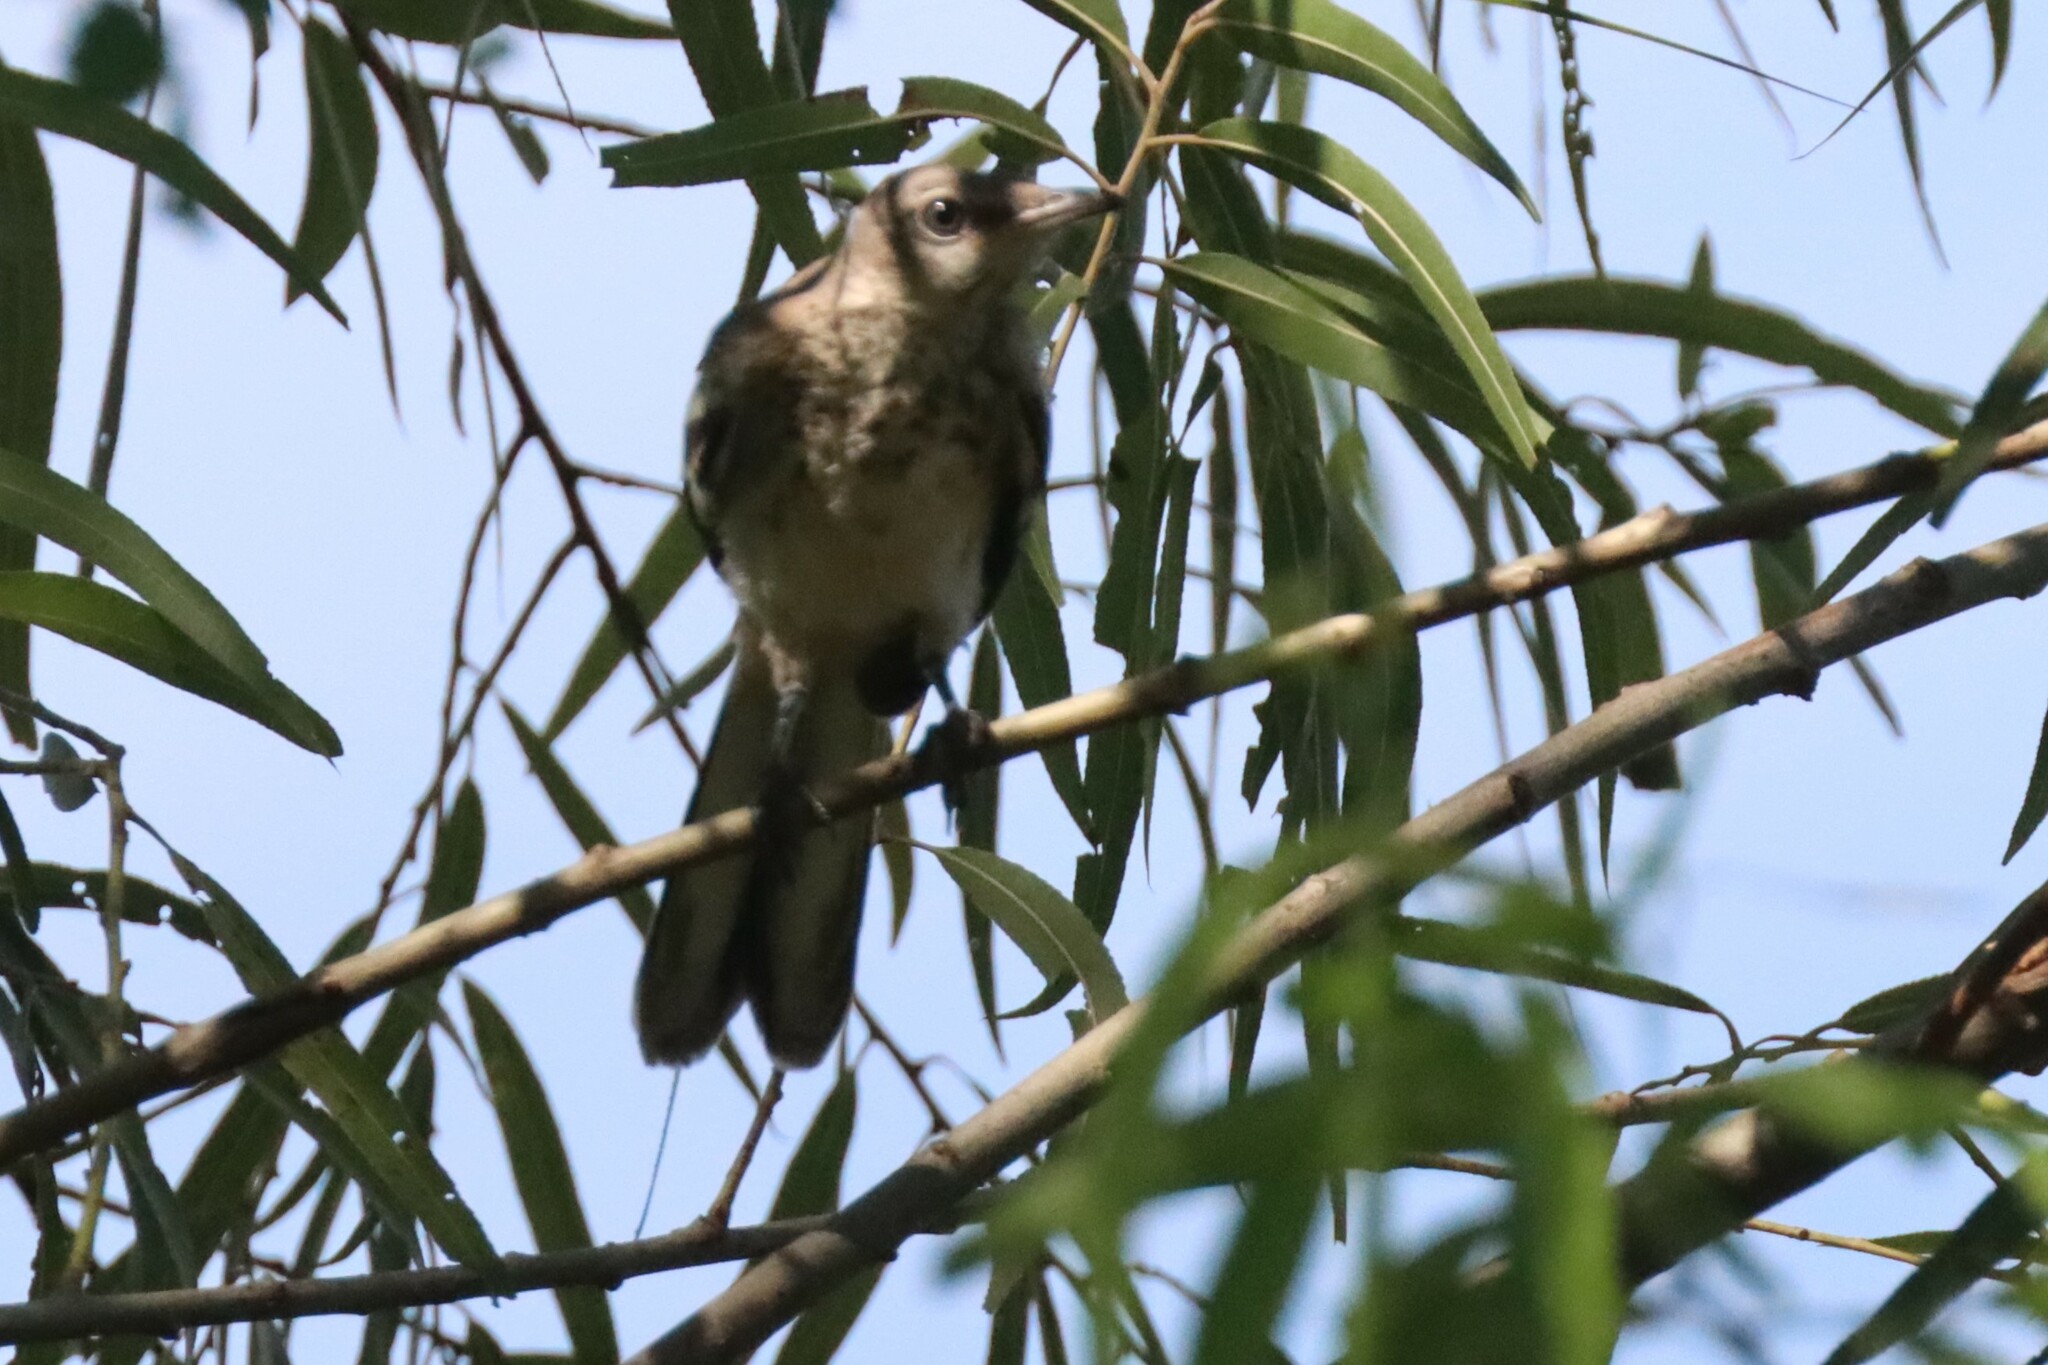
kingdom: Animalia
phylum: Chordata
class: Aves
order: Passeriformes
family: Mimidae
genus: Mimus
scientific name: Mimus polyglottos
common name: Northern mockingbird
